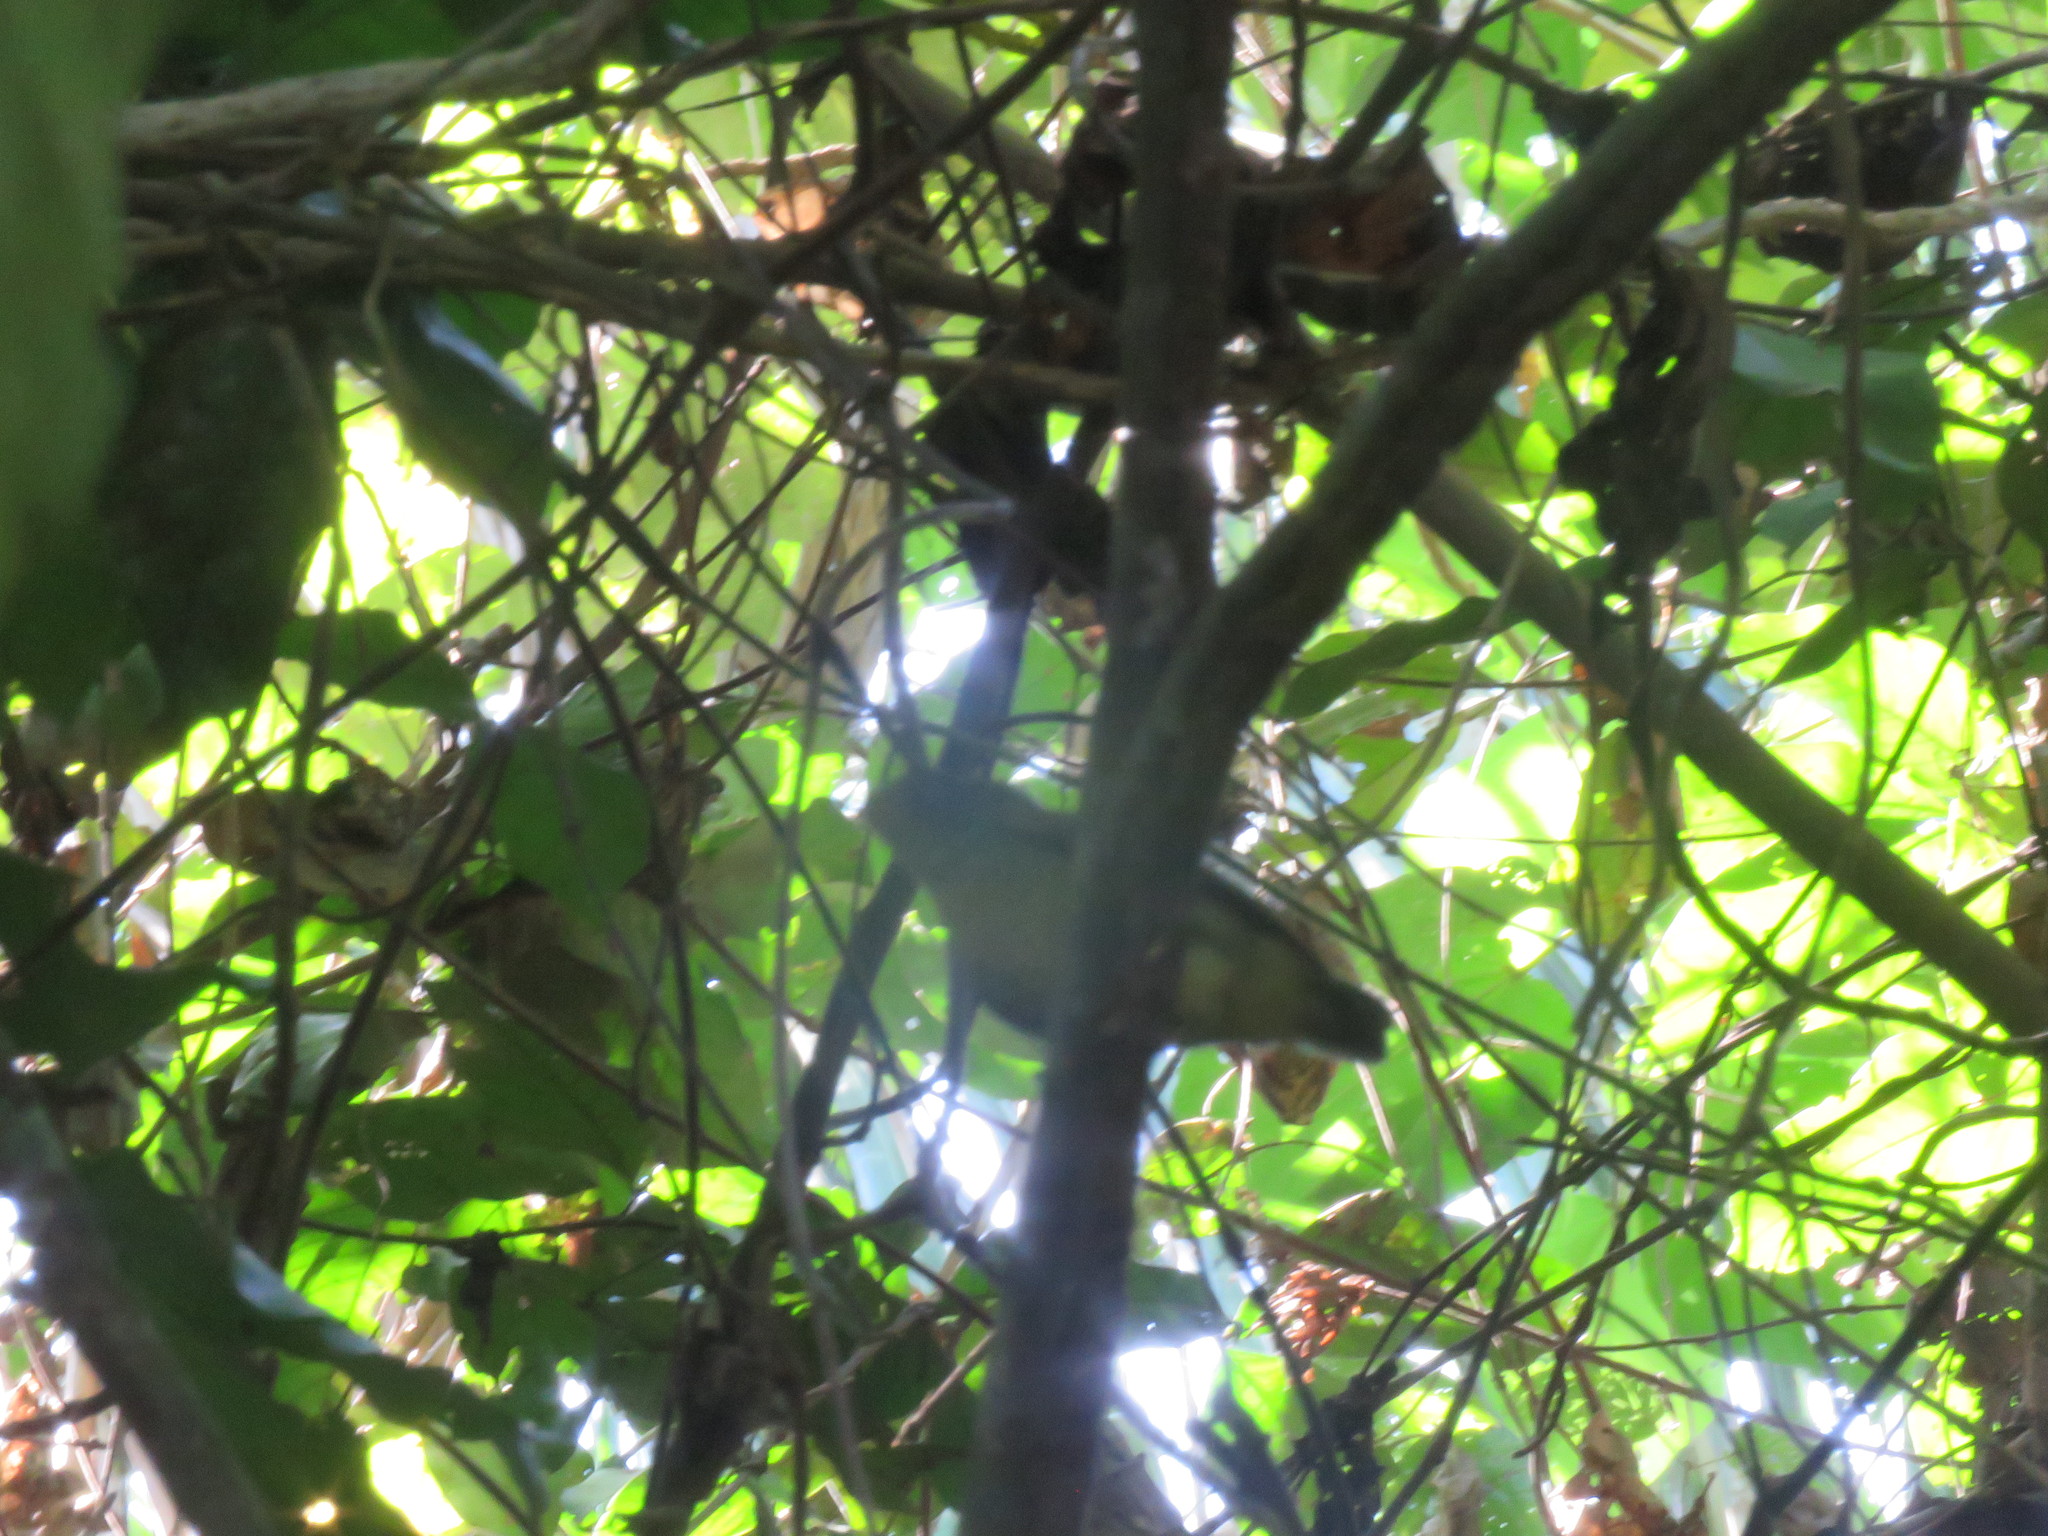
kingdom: Animalia
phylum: Chordata
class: Aves
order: Passeriformes
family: Pipridae
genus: Pipra
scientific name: Pipra fasciicauda
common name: Band-tailed manakin
